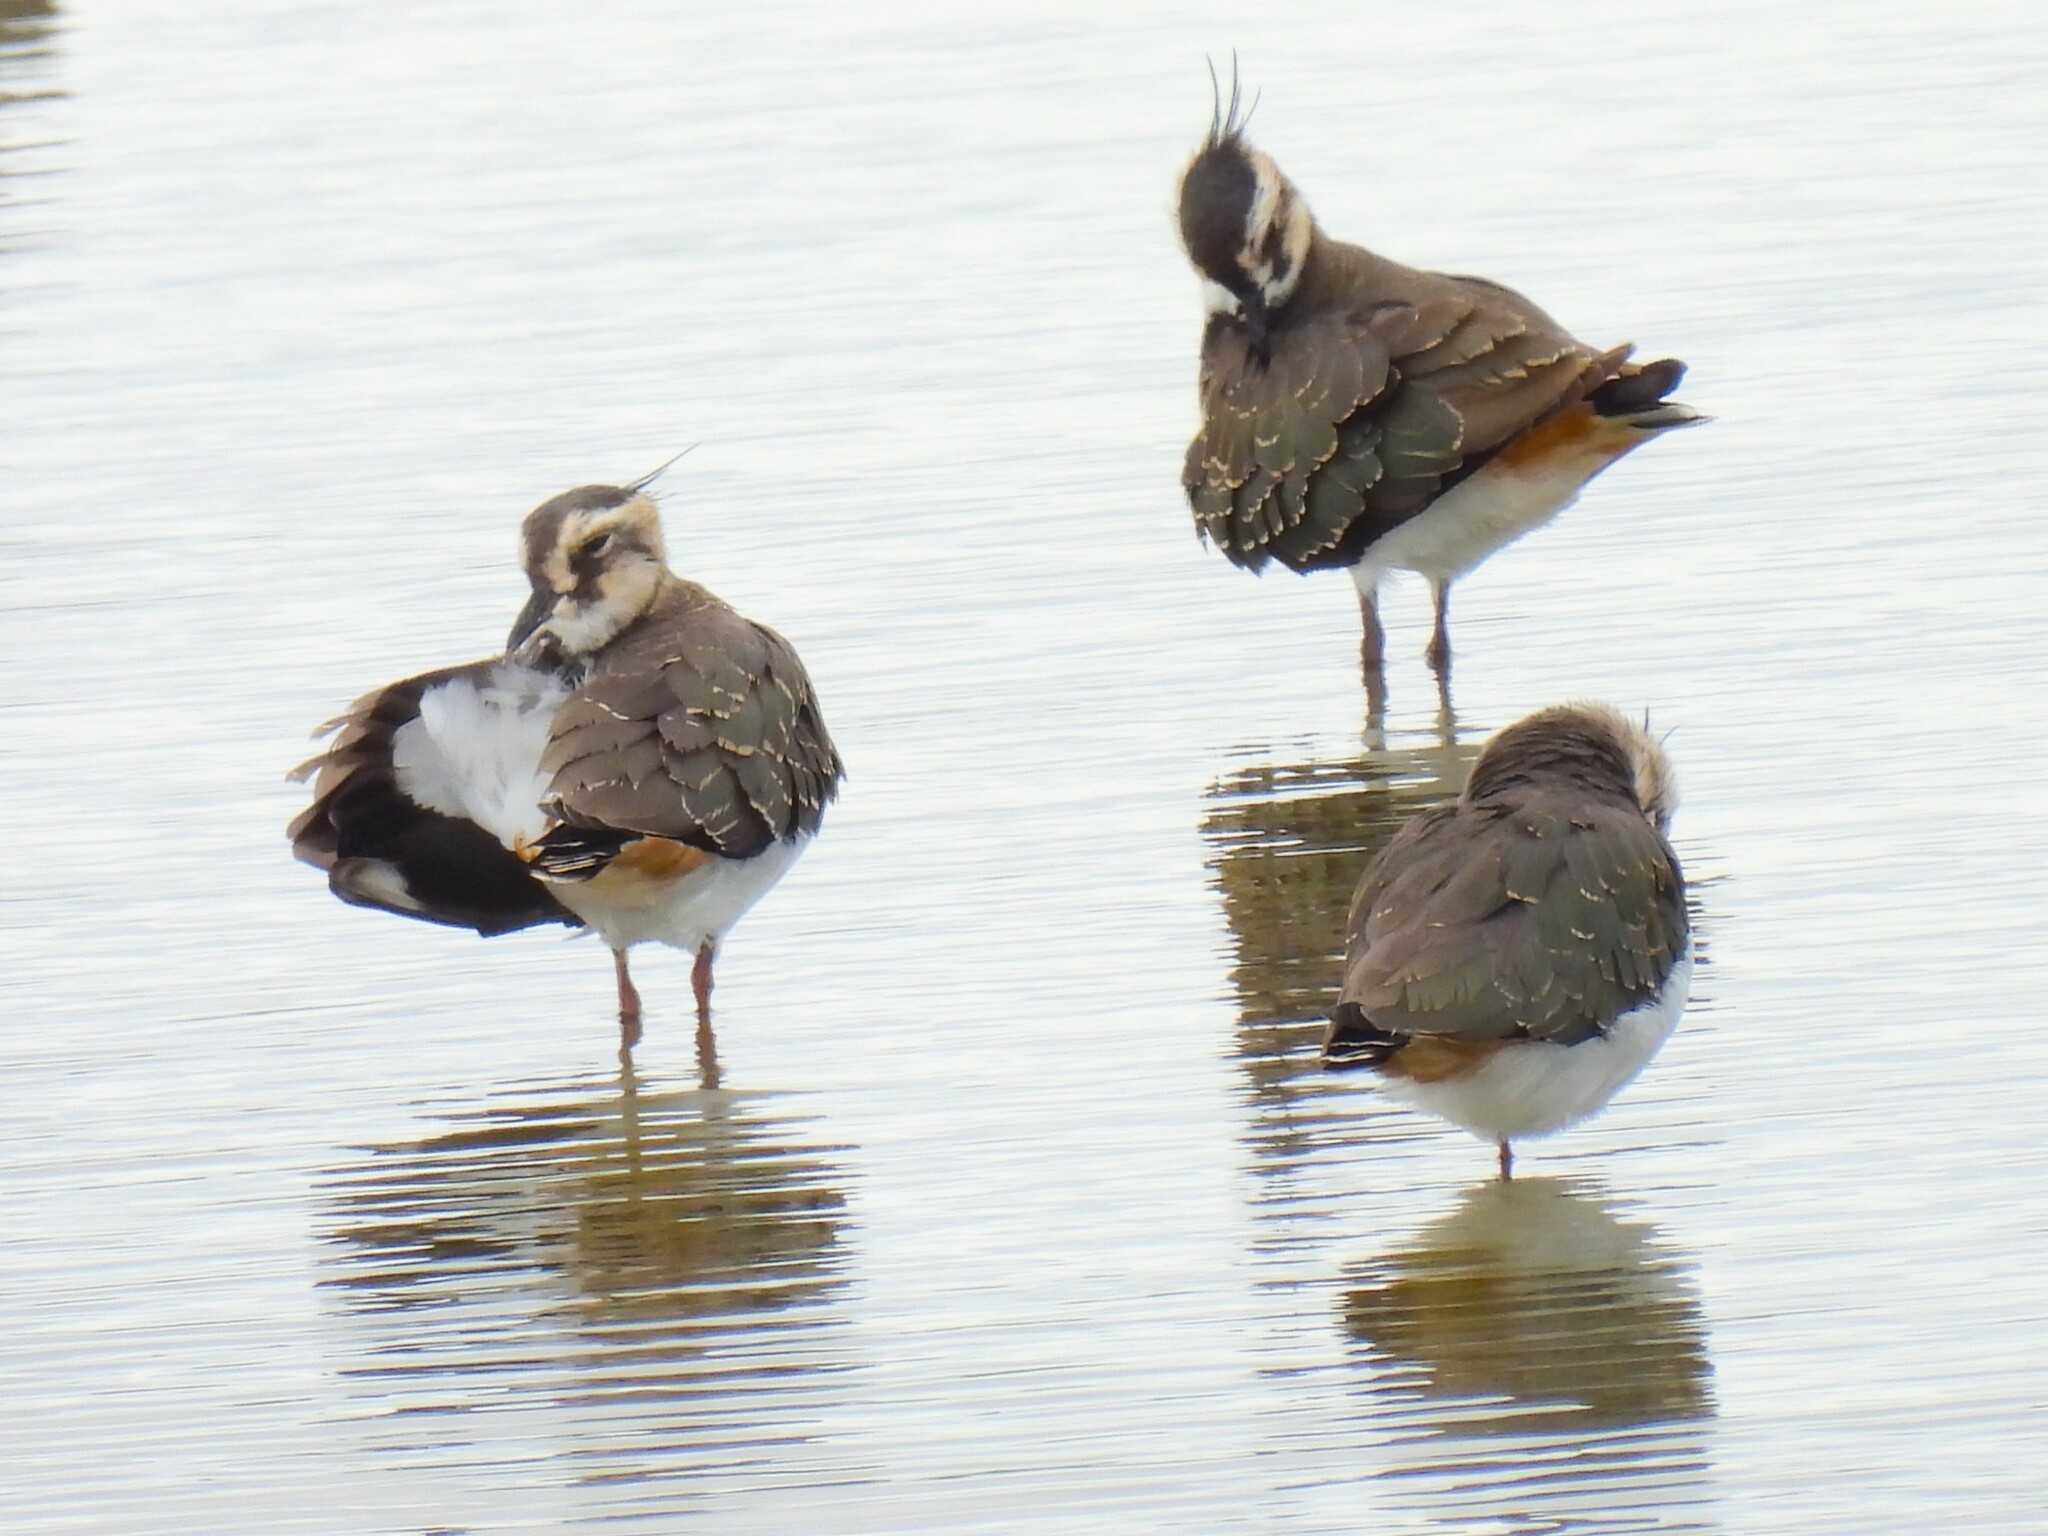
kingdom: Animalia
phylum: Chordata
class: Aves
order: Charadriiformes
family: Charadriidae
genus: Vanellus
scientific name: Vanellus vanellus
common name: Northern lapwing
